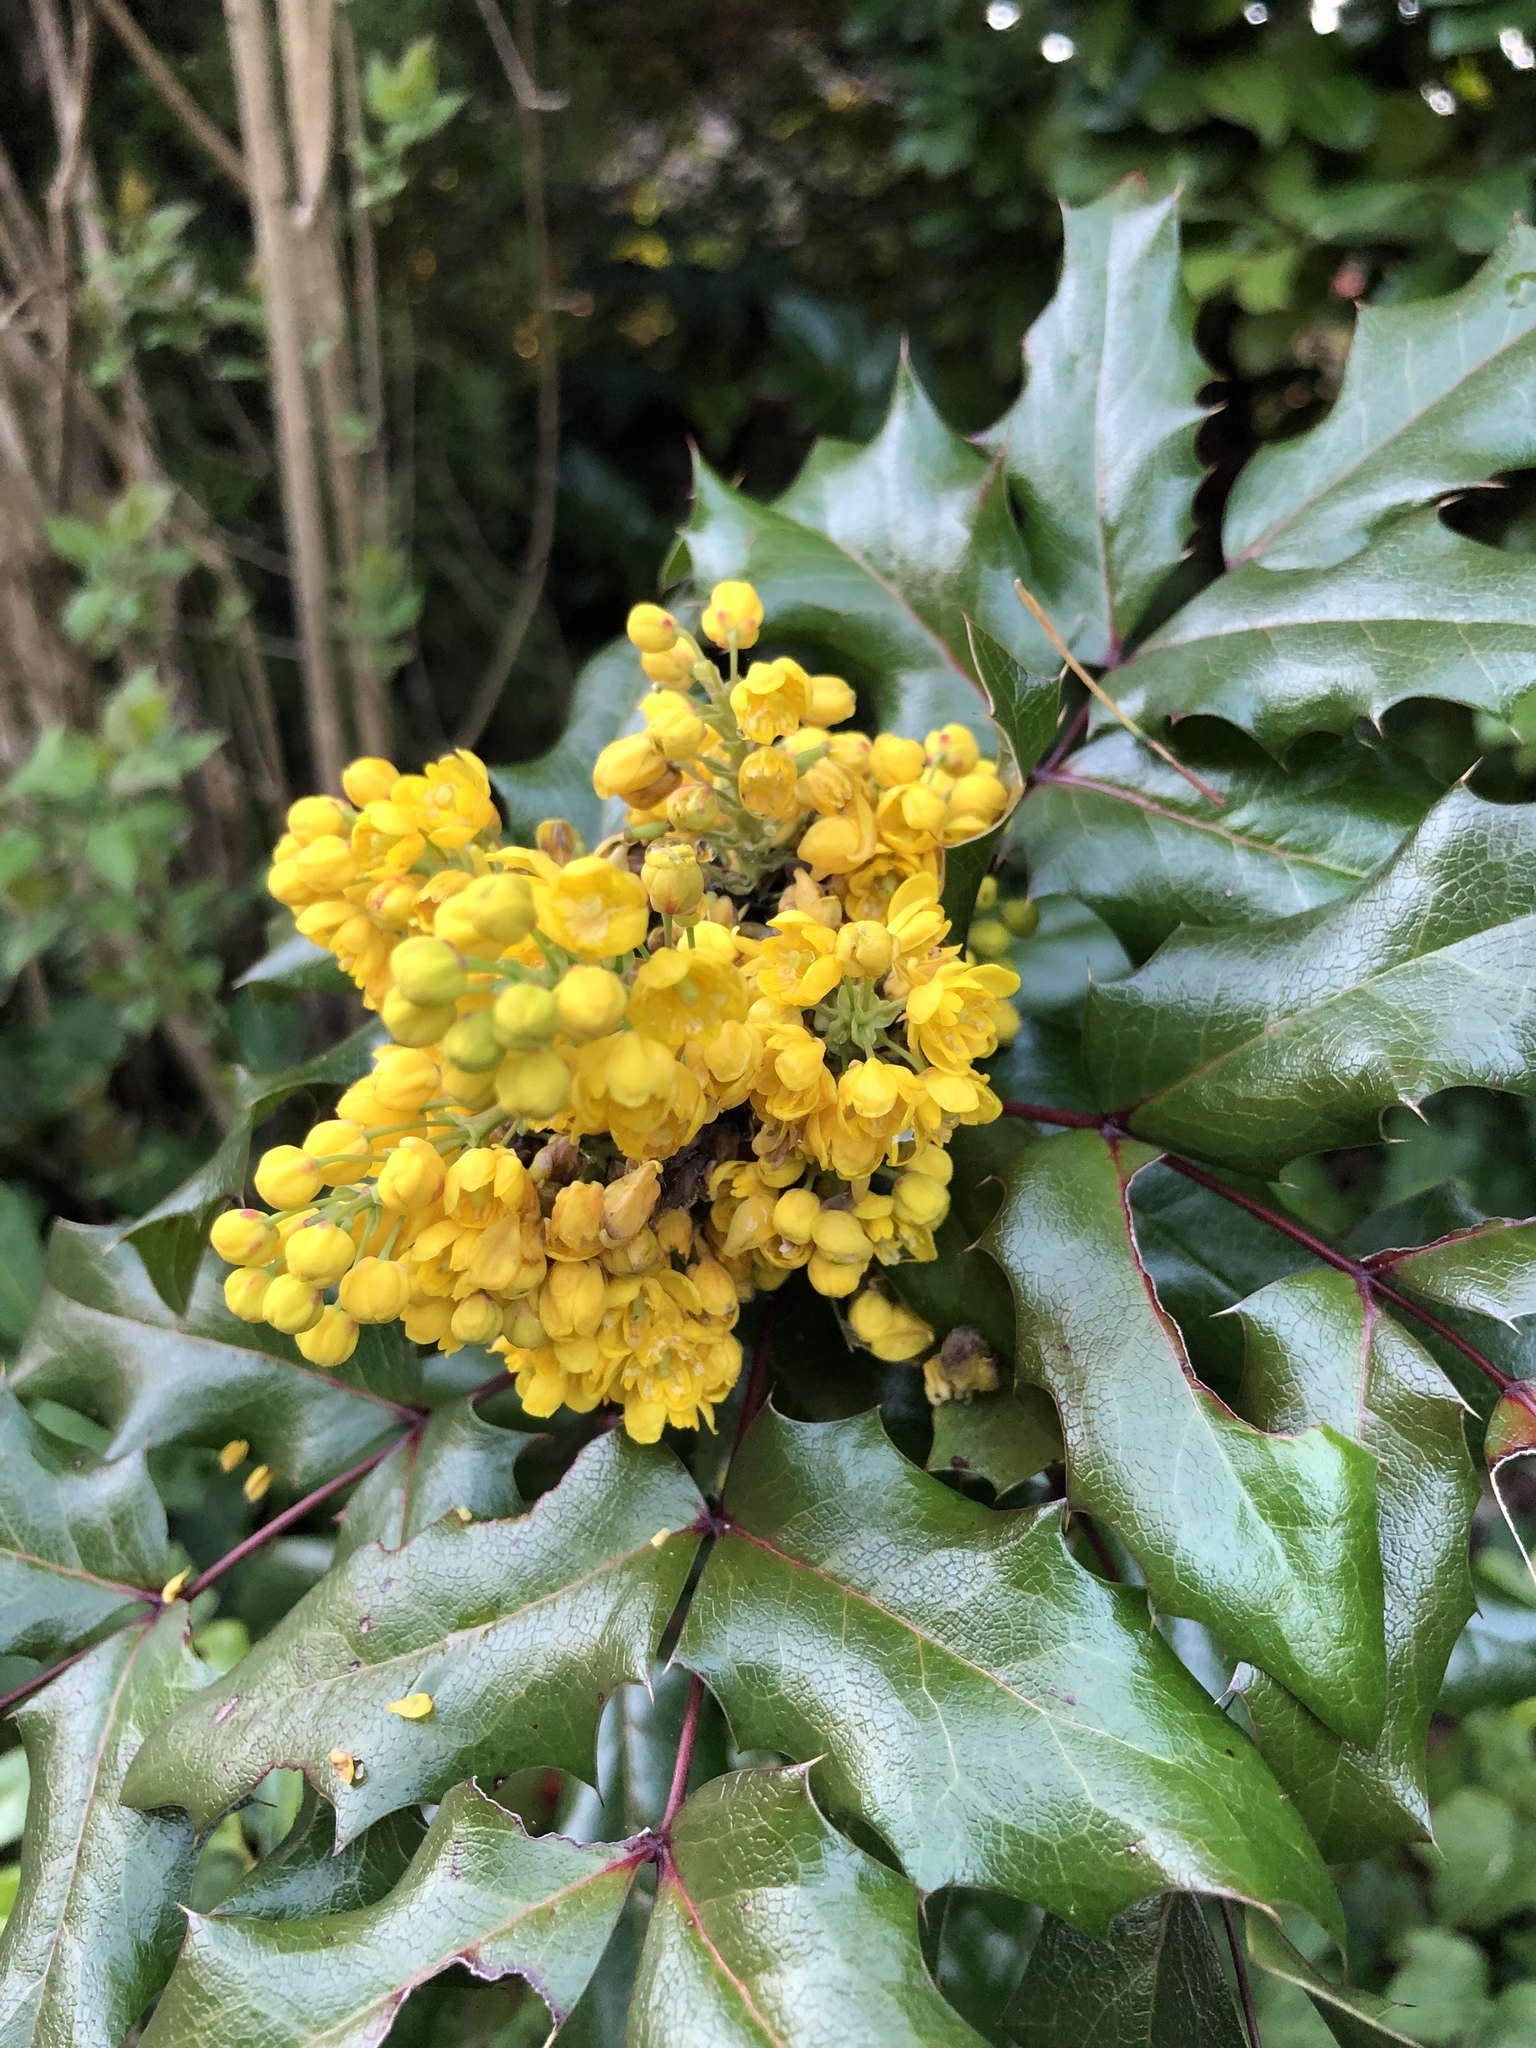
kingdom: Plantae
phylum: Tracheophyta
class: Magnoliopsida
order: Ranunculales
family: Berberidaceae
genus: Mahonia
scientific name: Mahonia aquifolium
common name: Oregon-grape
